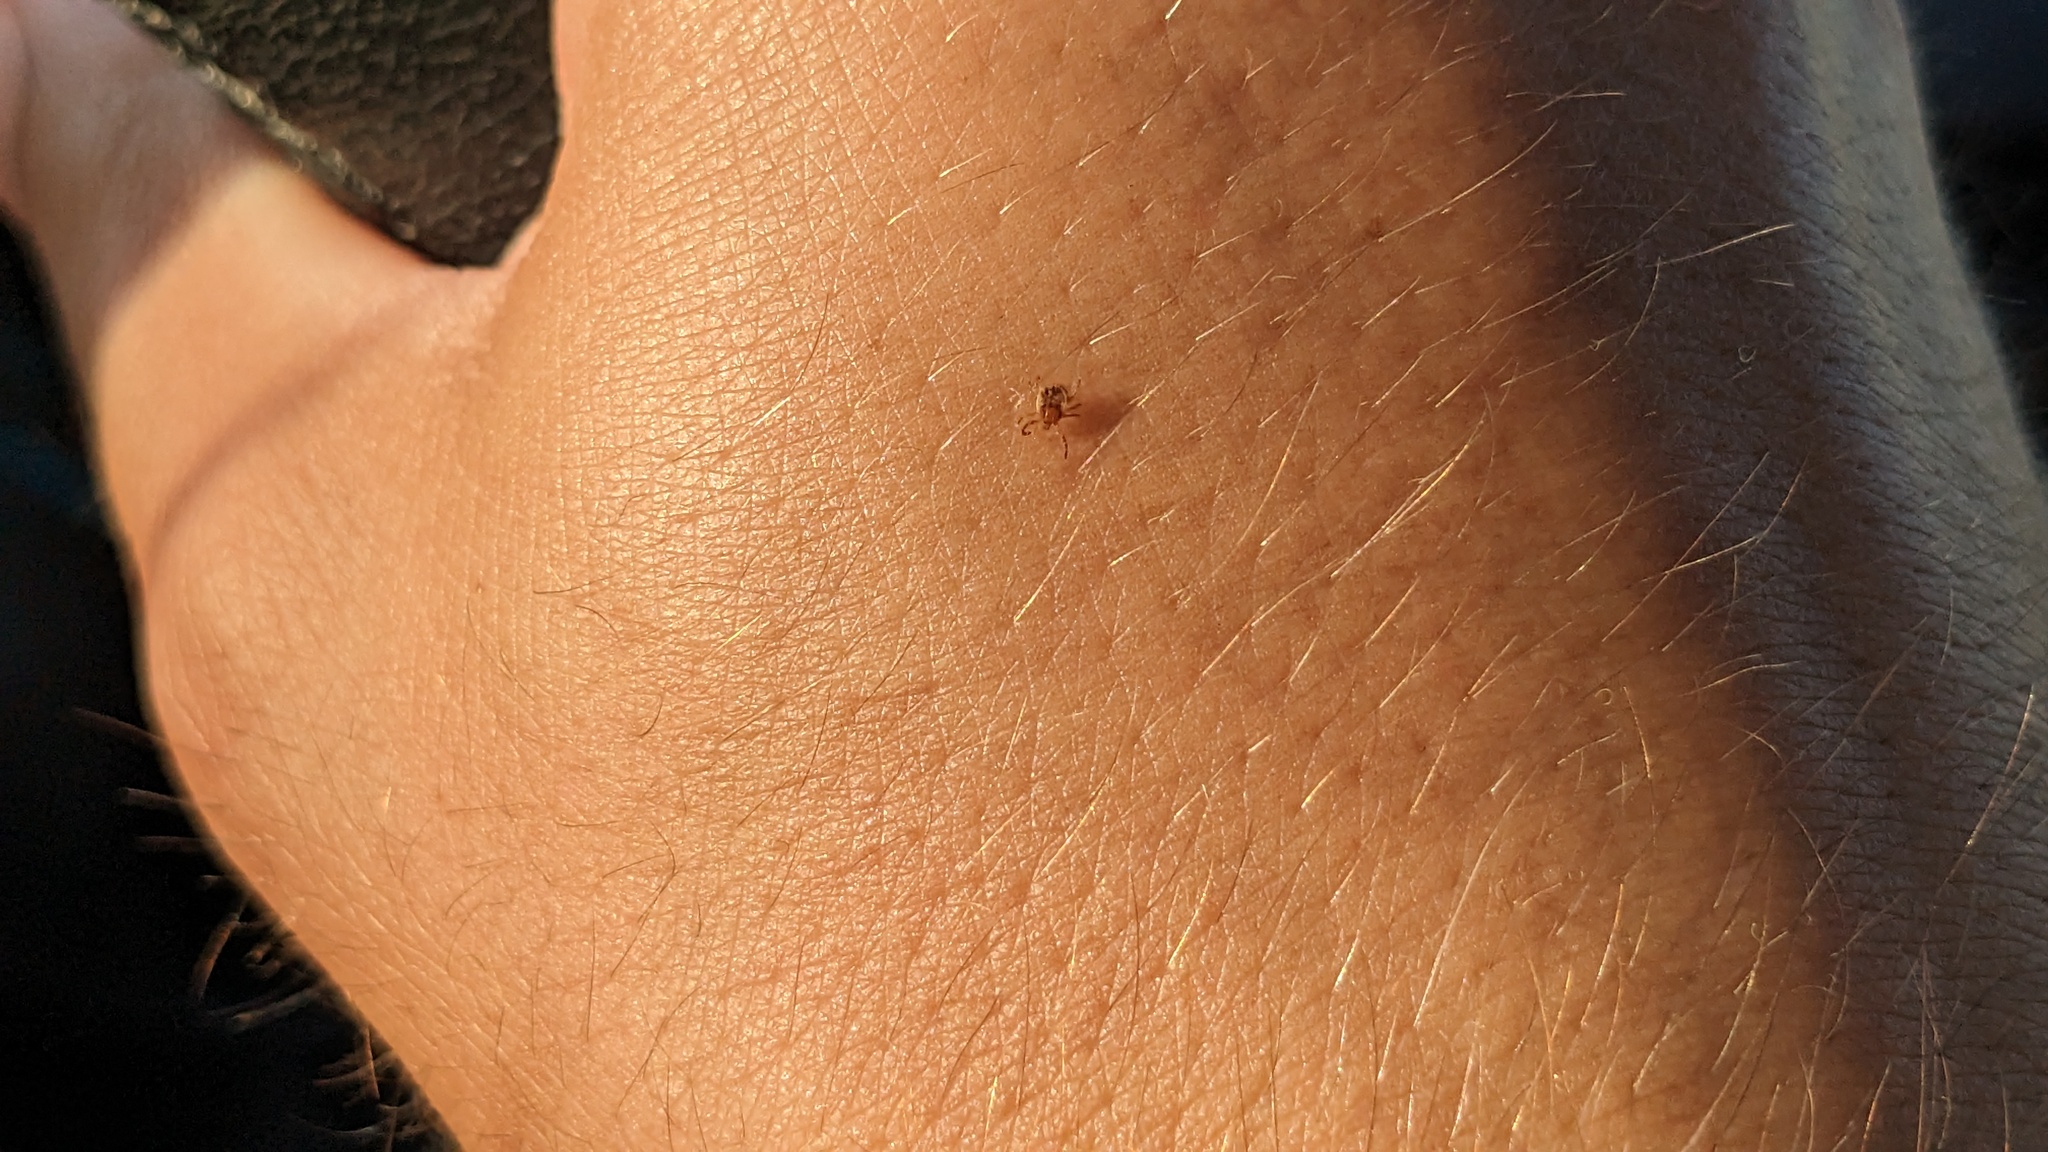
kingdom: Animalia
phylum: Arthropoda
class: Arachnida
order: Ixodida
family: Ixodidae
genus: Amblyomma
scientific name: Amblyomma americanum
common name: Lone star tick
